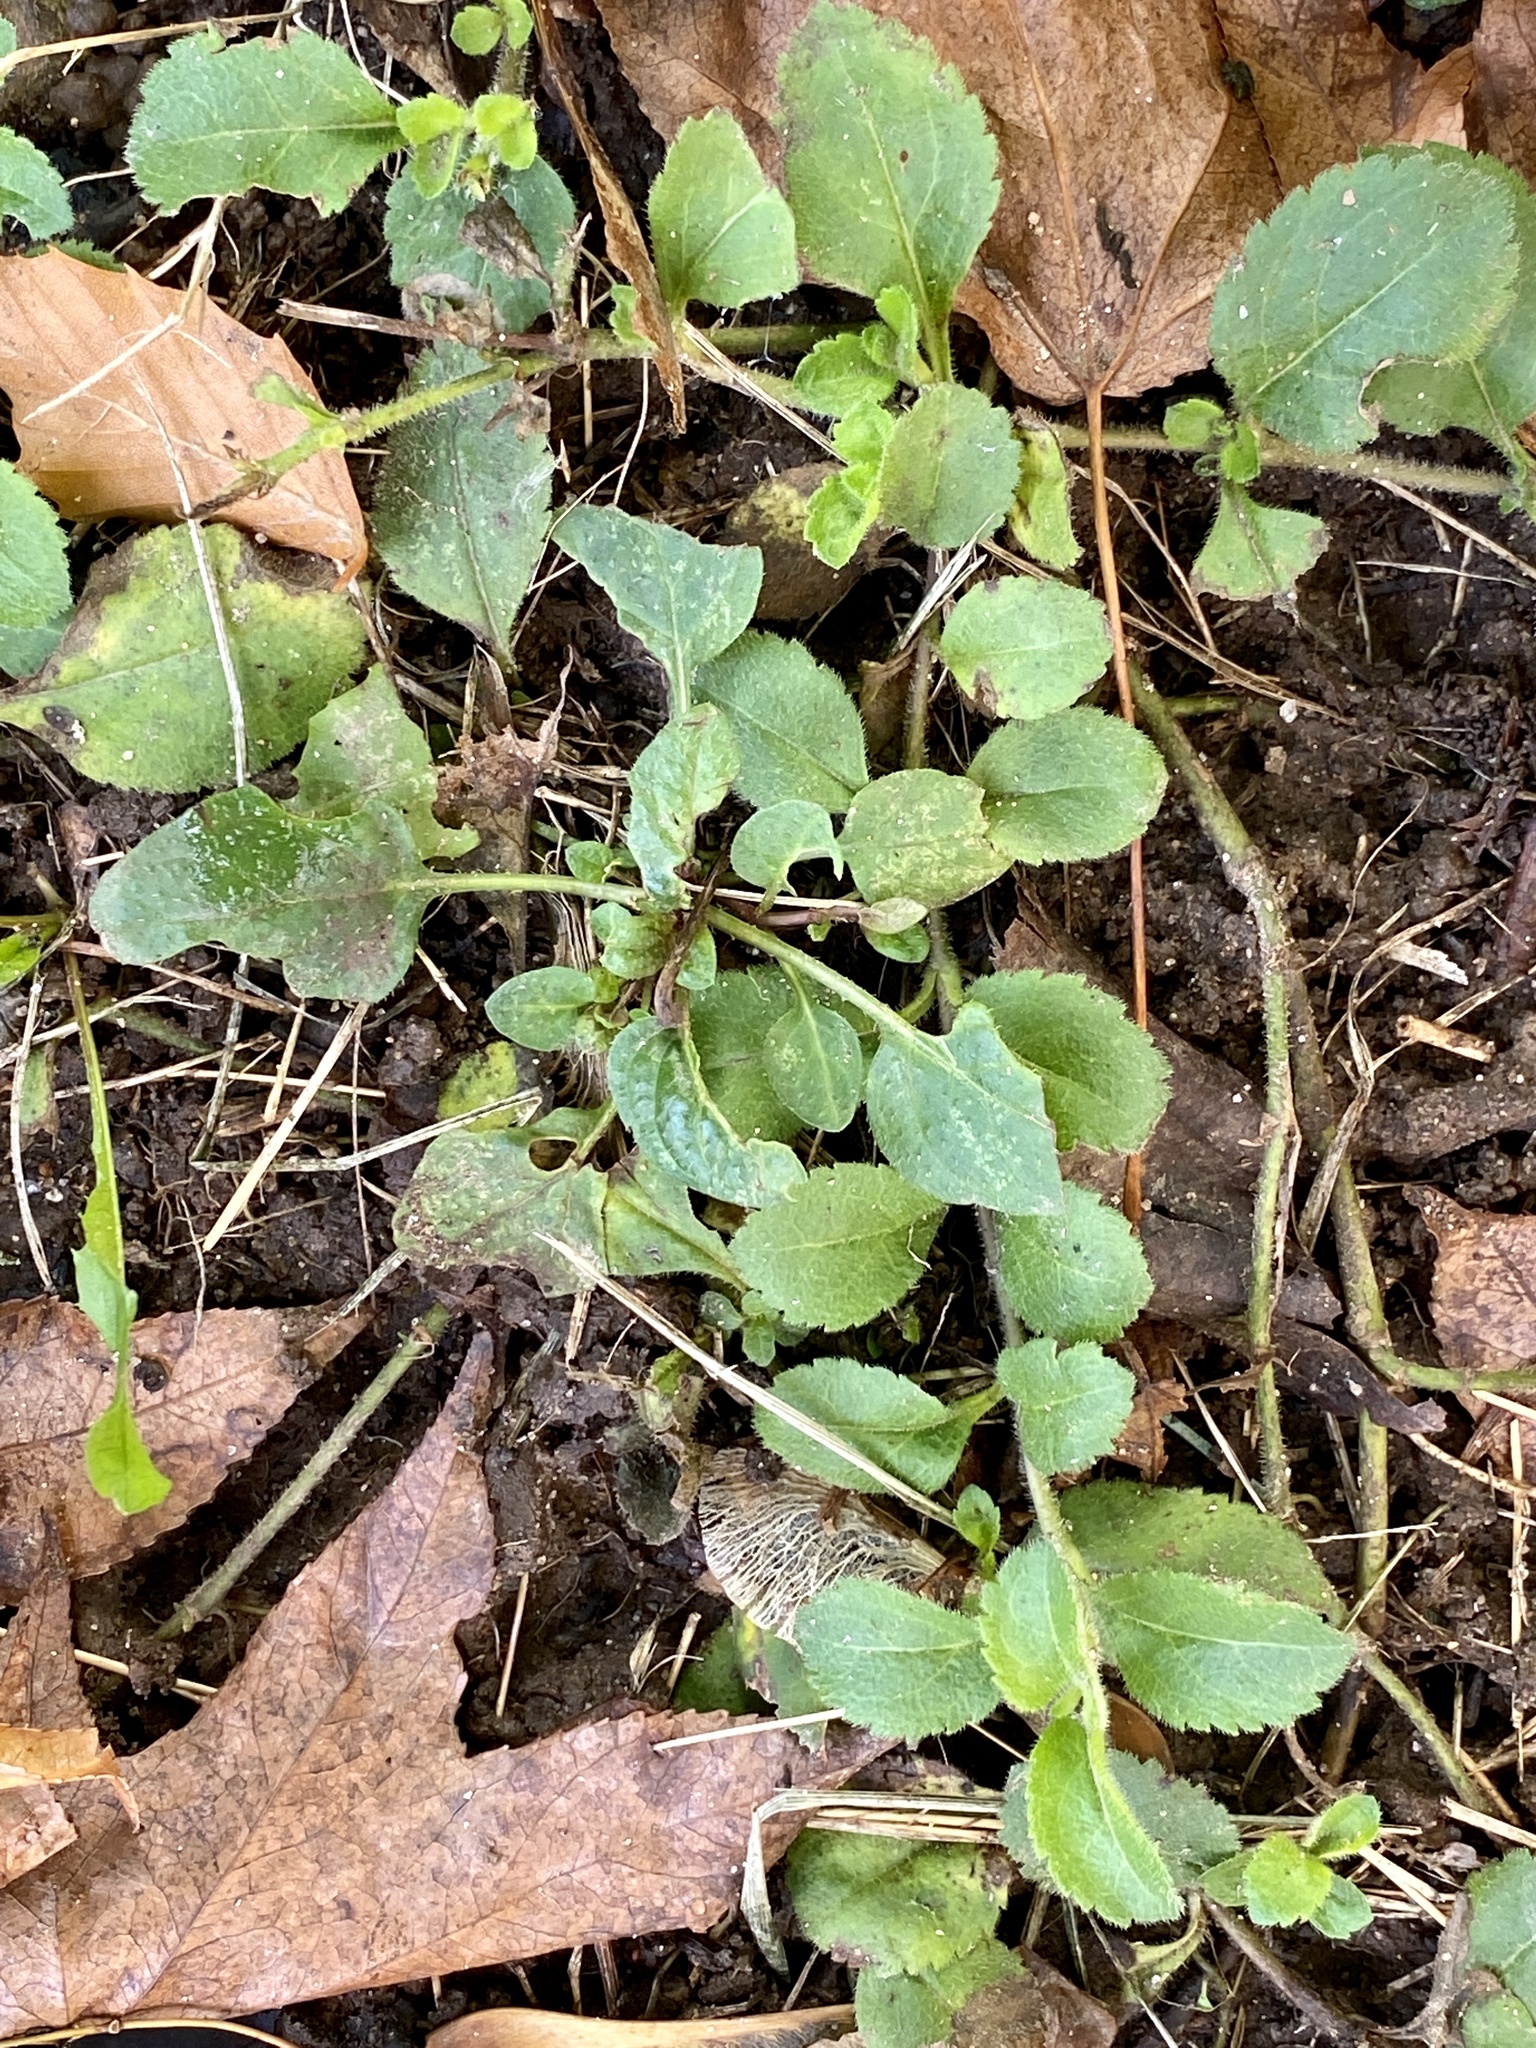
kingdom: Plantae
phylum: Tracheophyta
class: Magnoliopsida
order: Lamiales
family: Plantaginaceae
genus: Veronica
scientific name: Veronica officinalis
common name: Common speedwell
